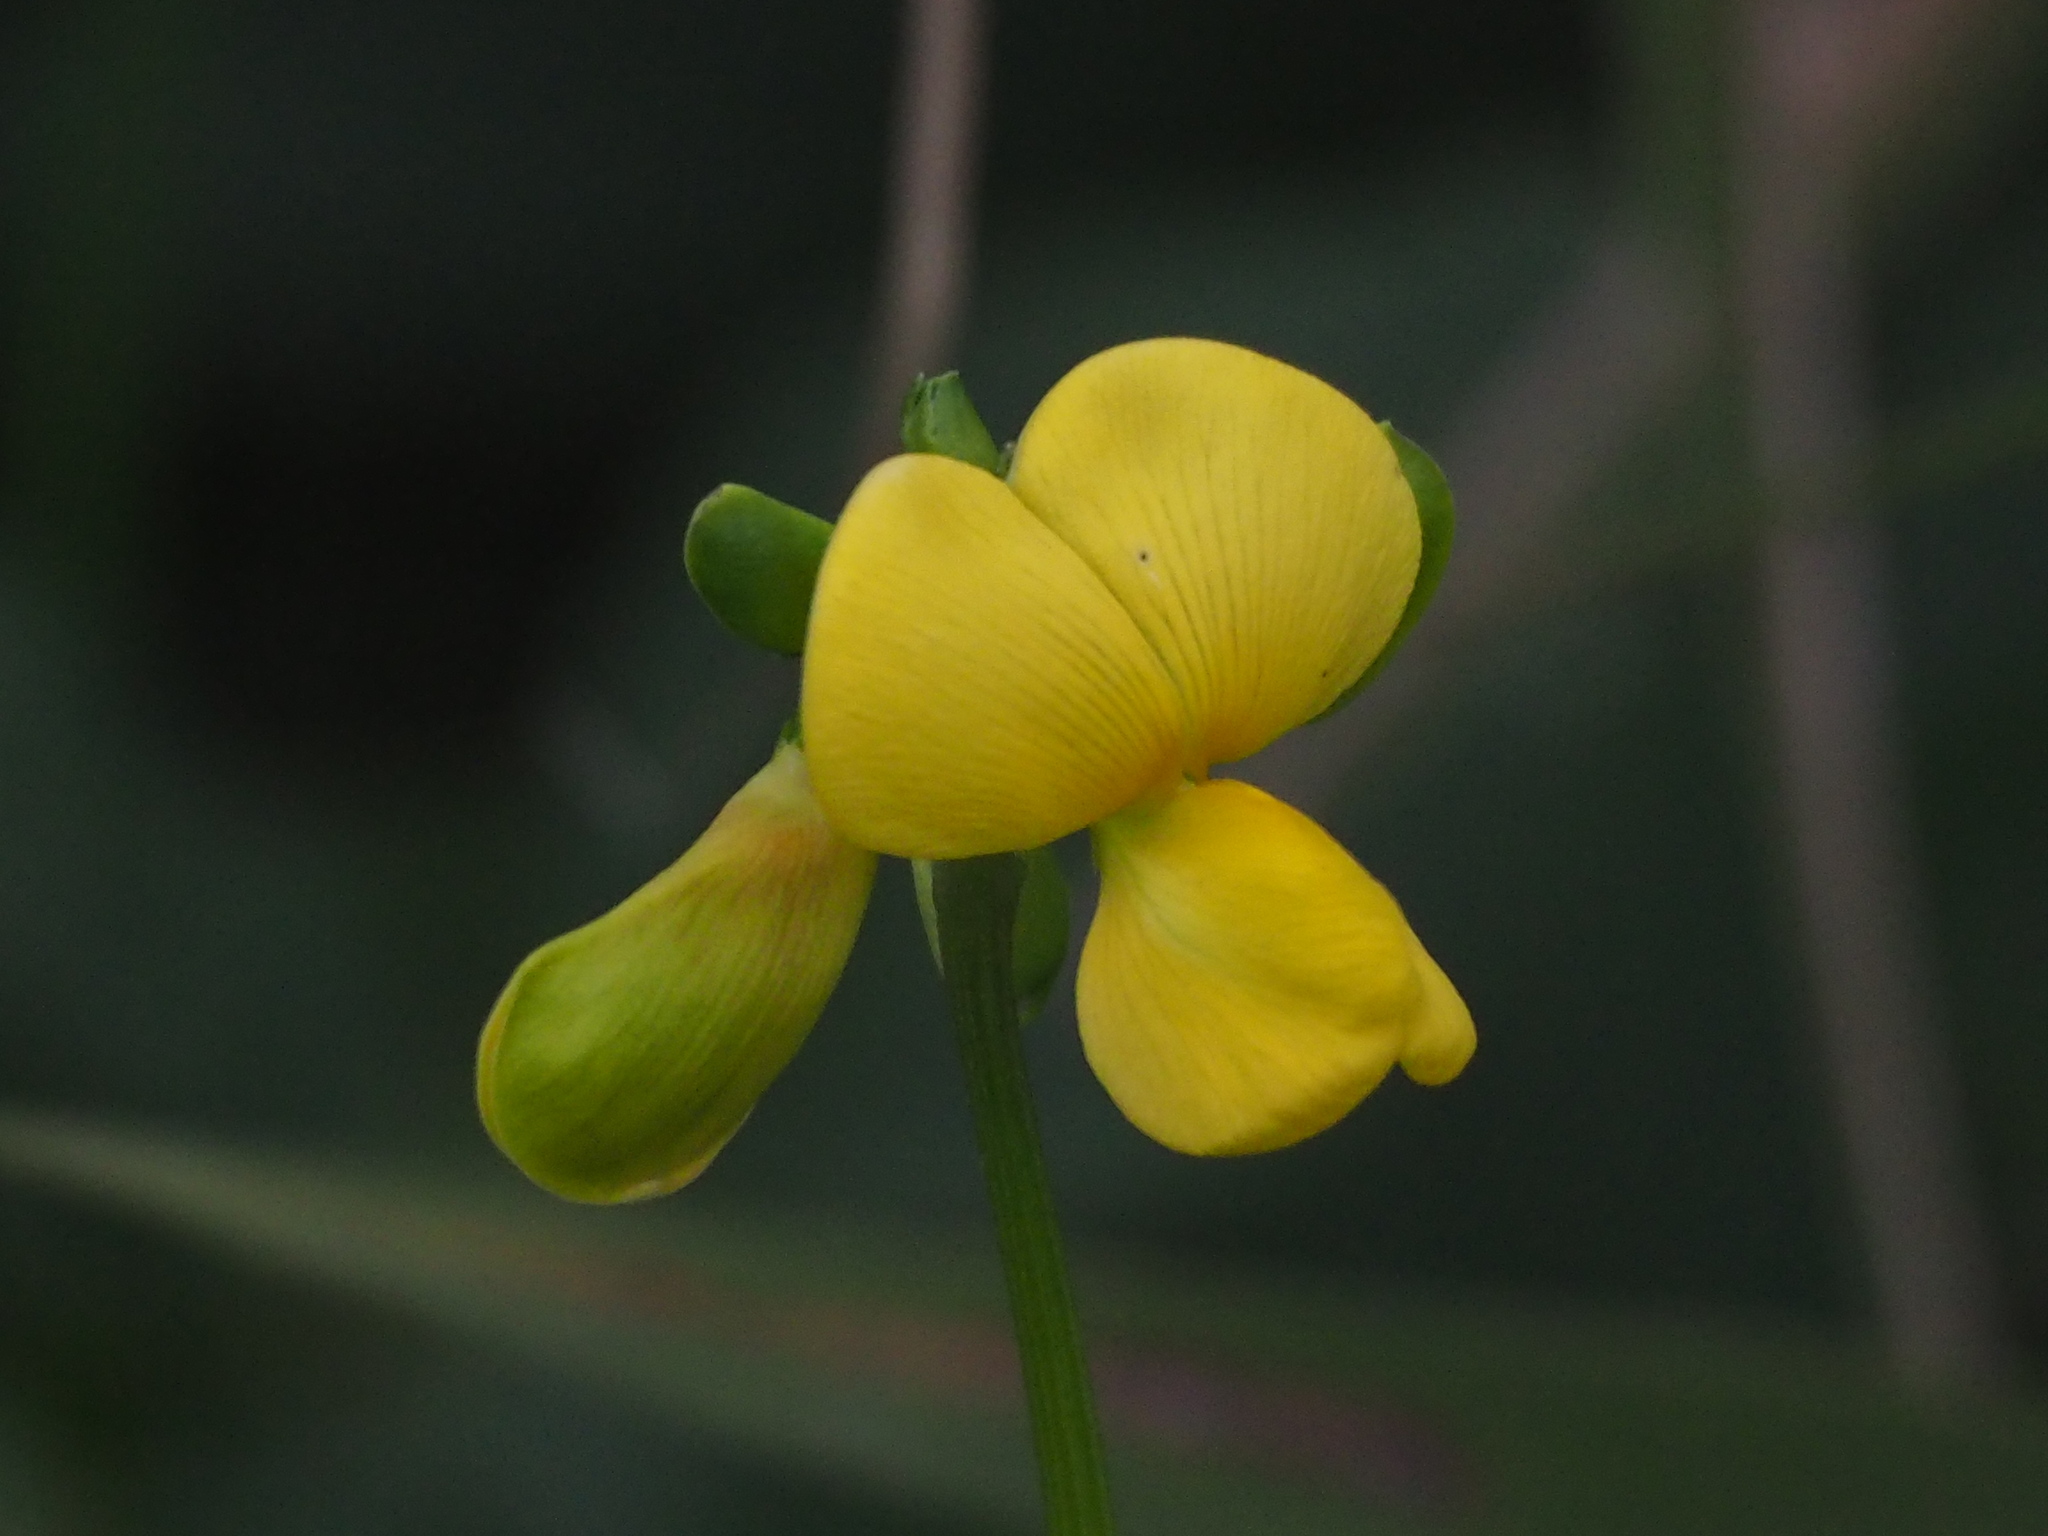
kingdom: Plantae
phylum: Tracheophyta
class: Magnoliopsida
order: Fabales
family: Fabaceae
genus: Vigna
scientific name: Vigna luteola
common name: Hairypod cowpea
